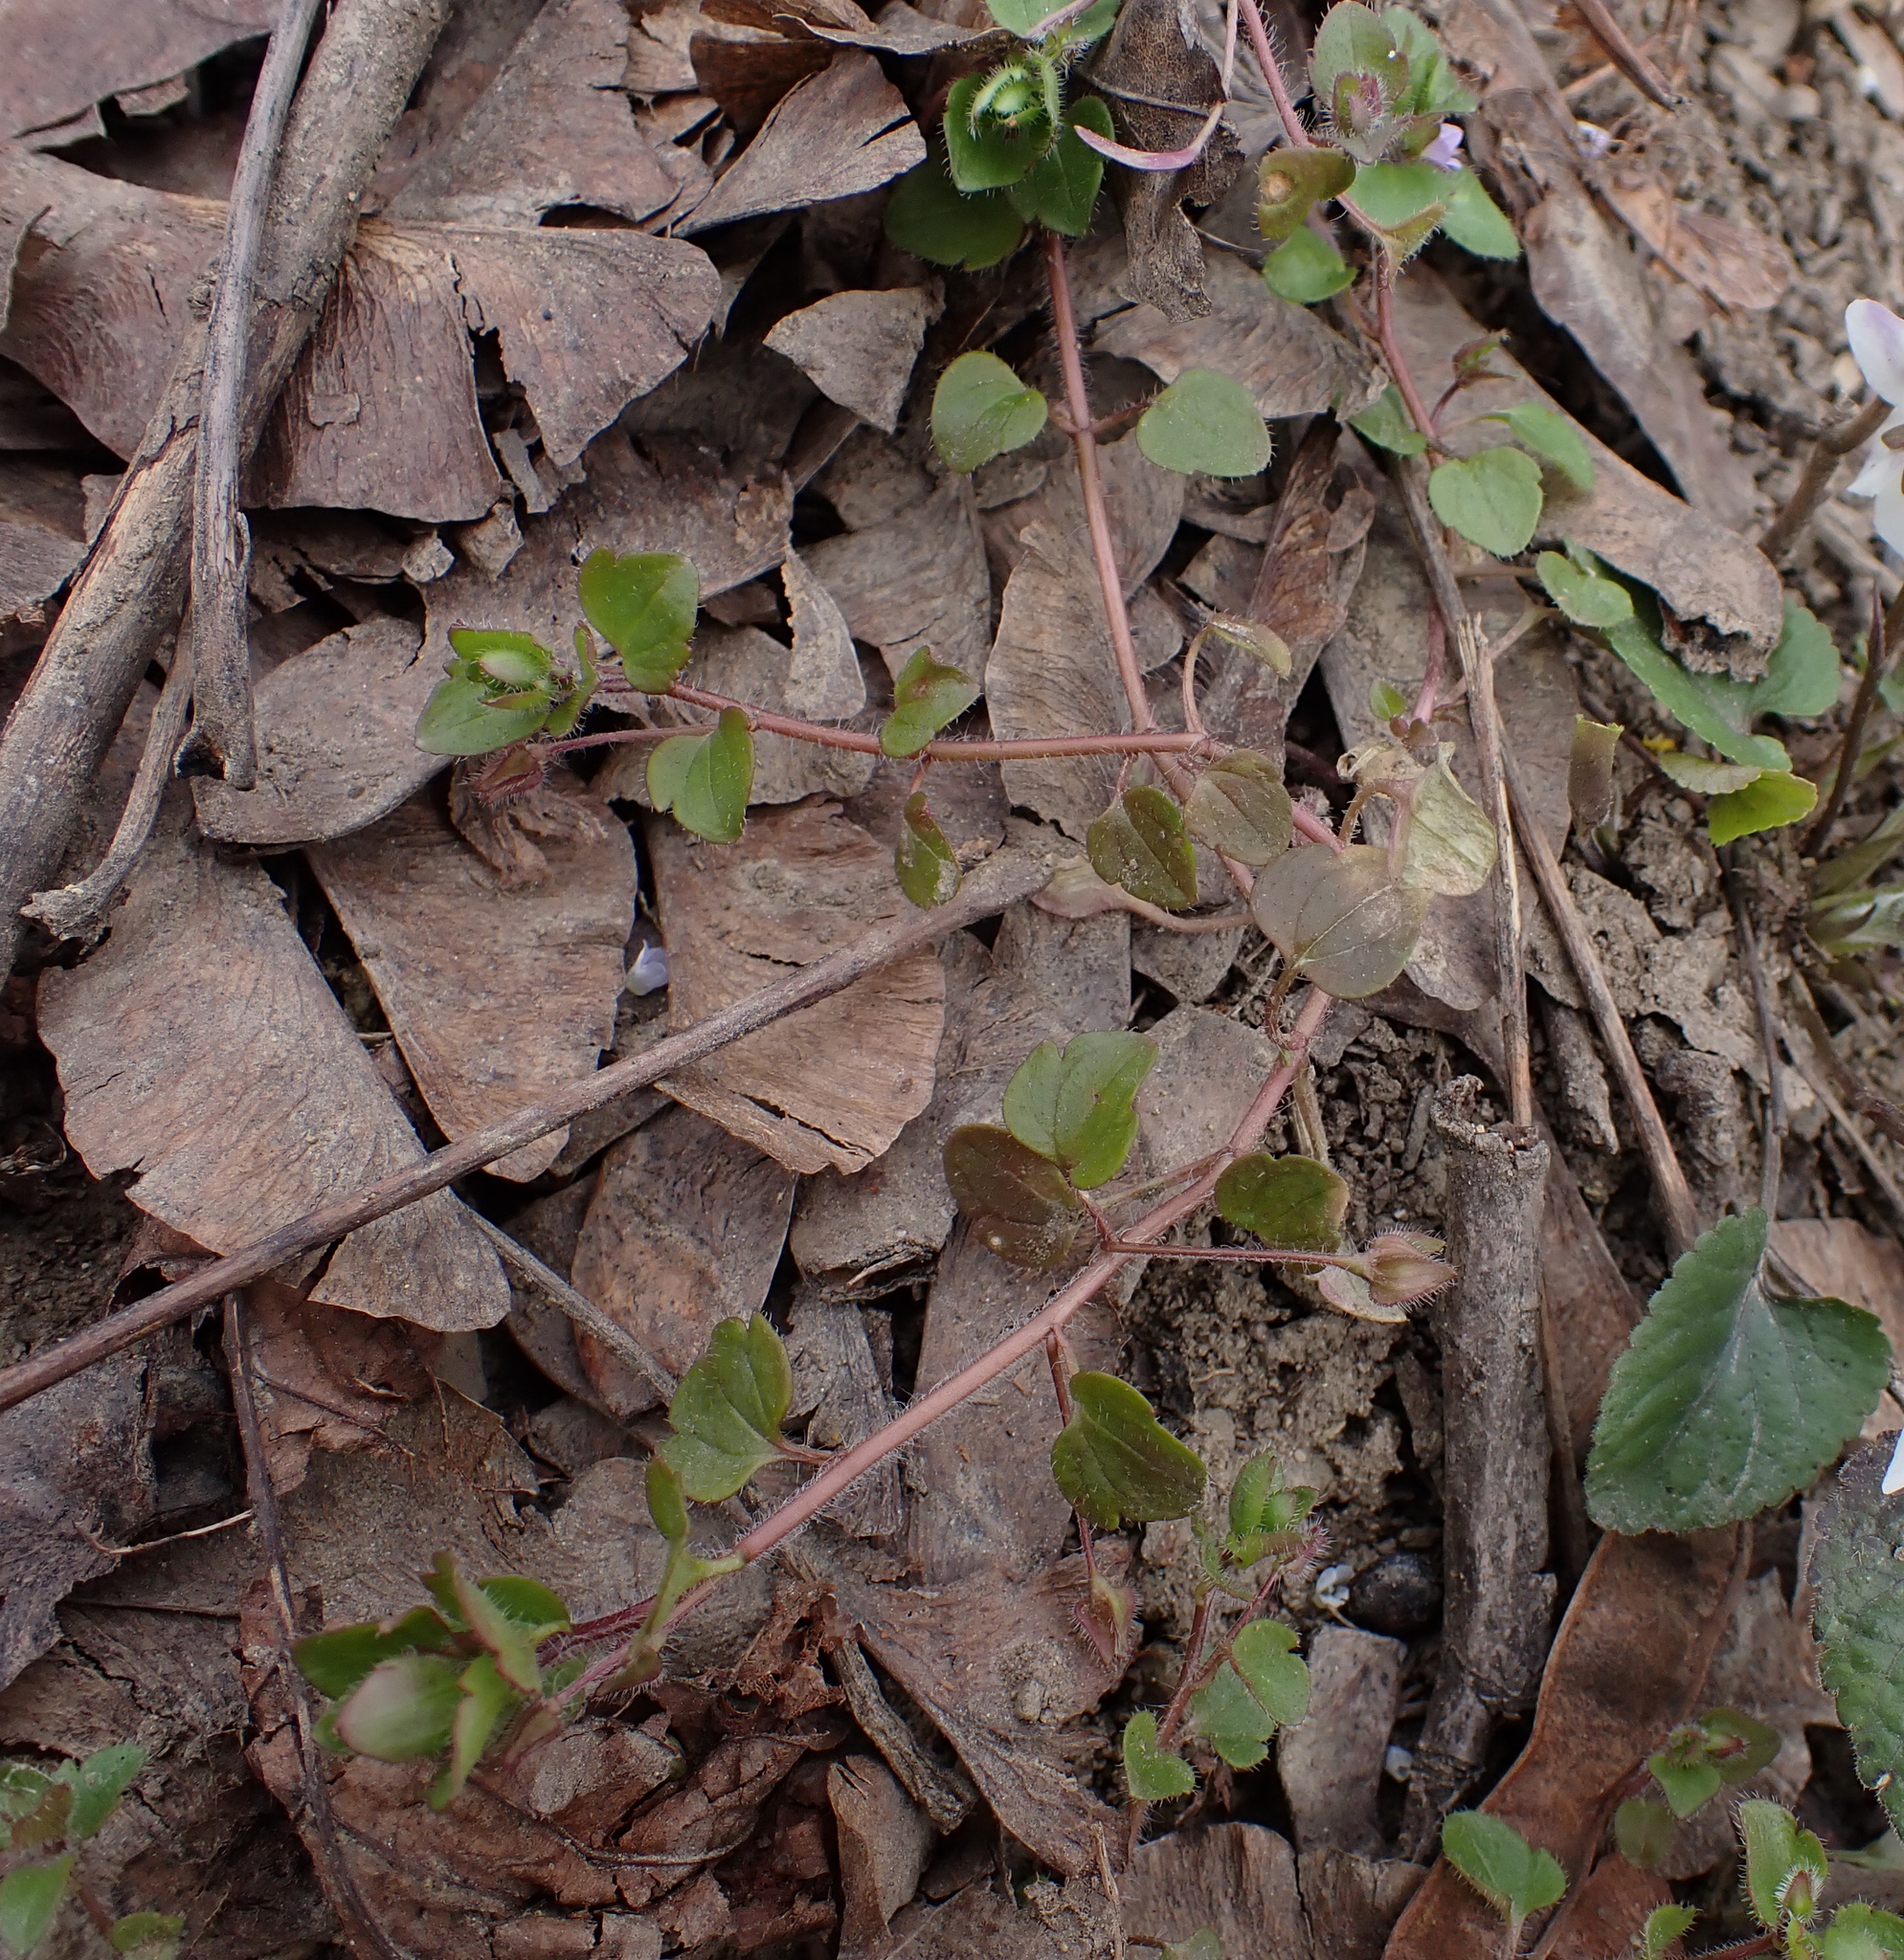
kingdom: Plantae
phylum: Tracheophyta
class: Magnoliopsida
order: Lamiales
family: Plantaginaceae
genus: Veronica
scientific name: Veronica sublobata
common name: False ivy-leaved speedwell
